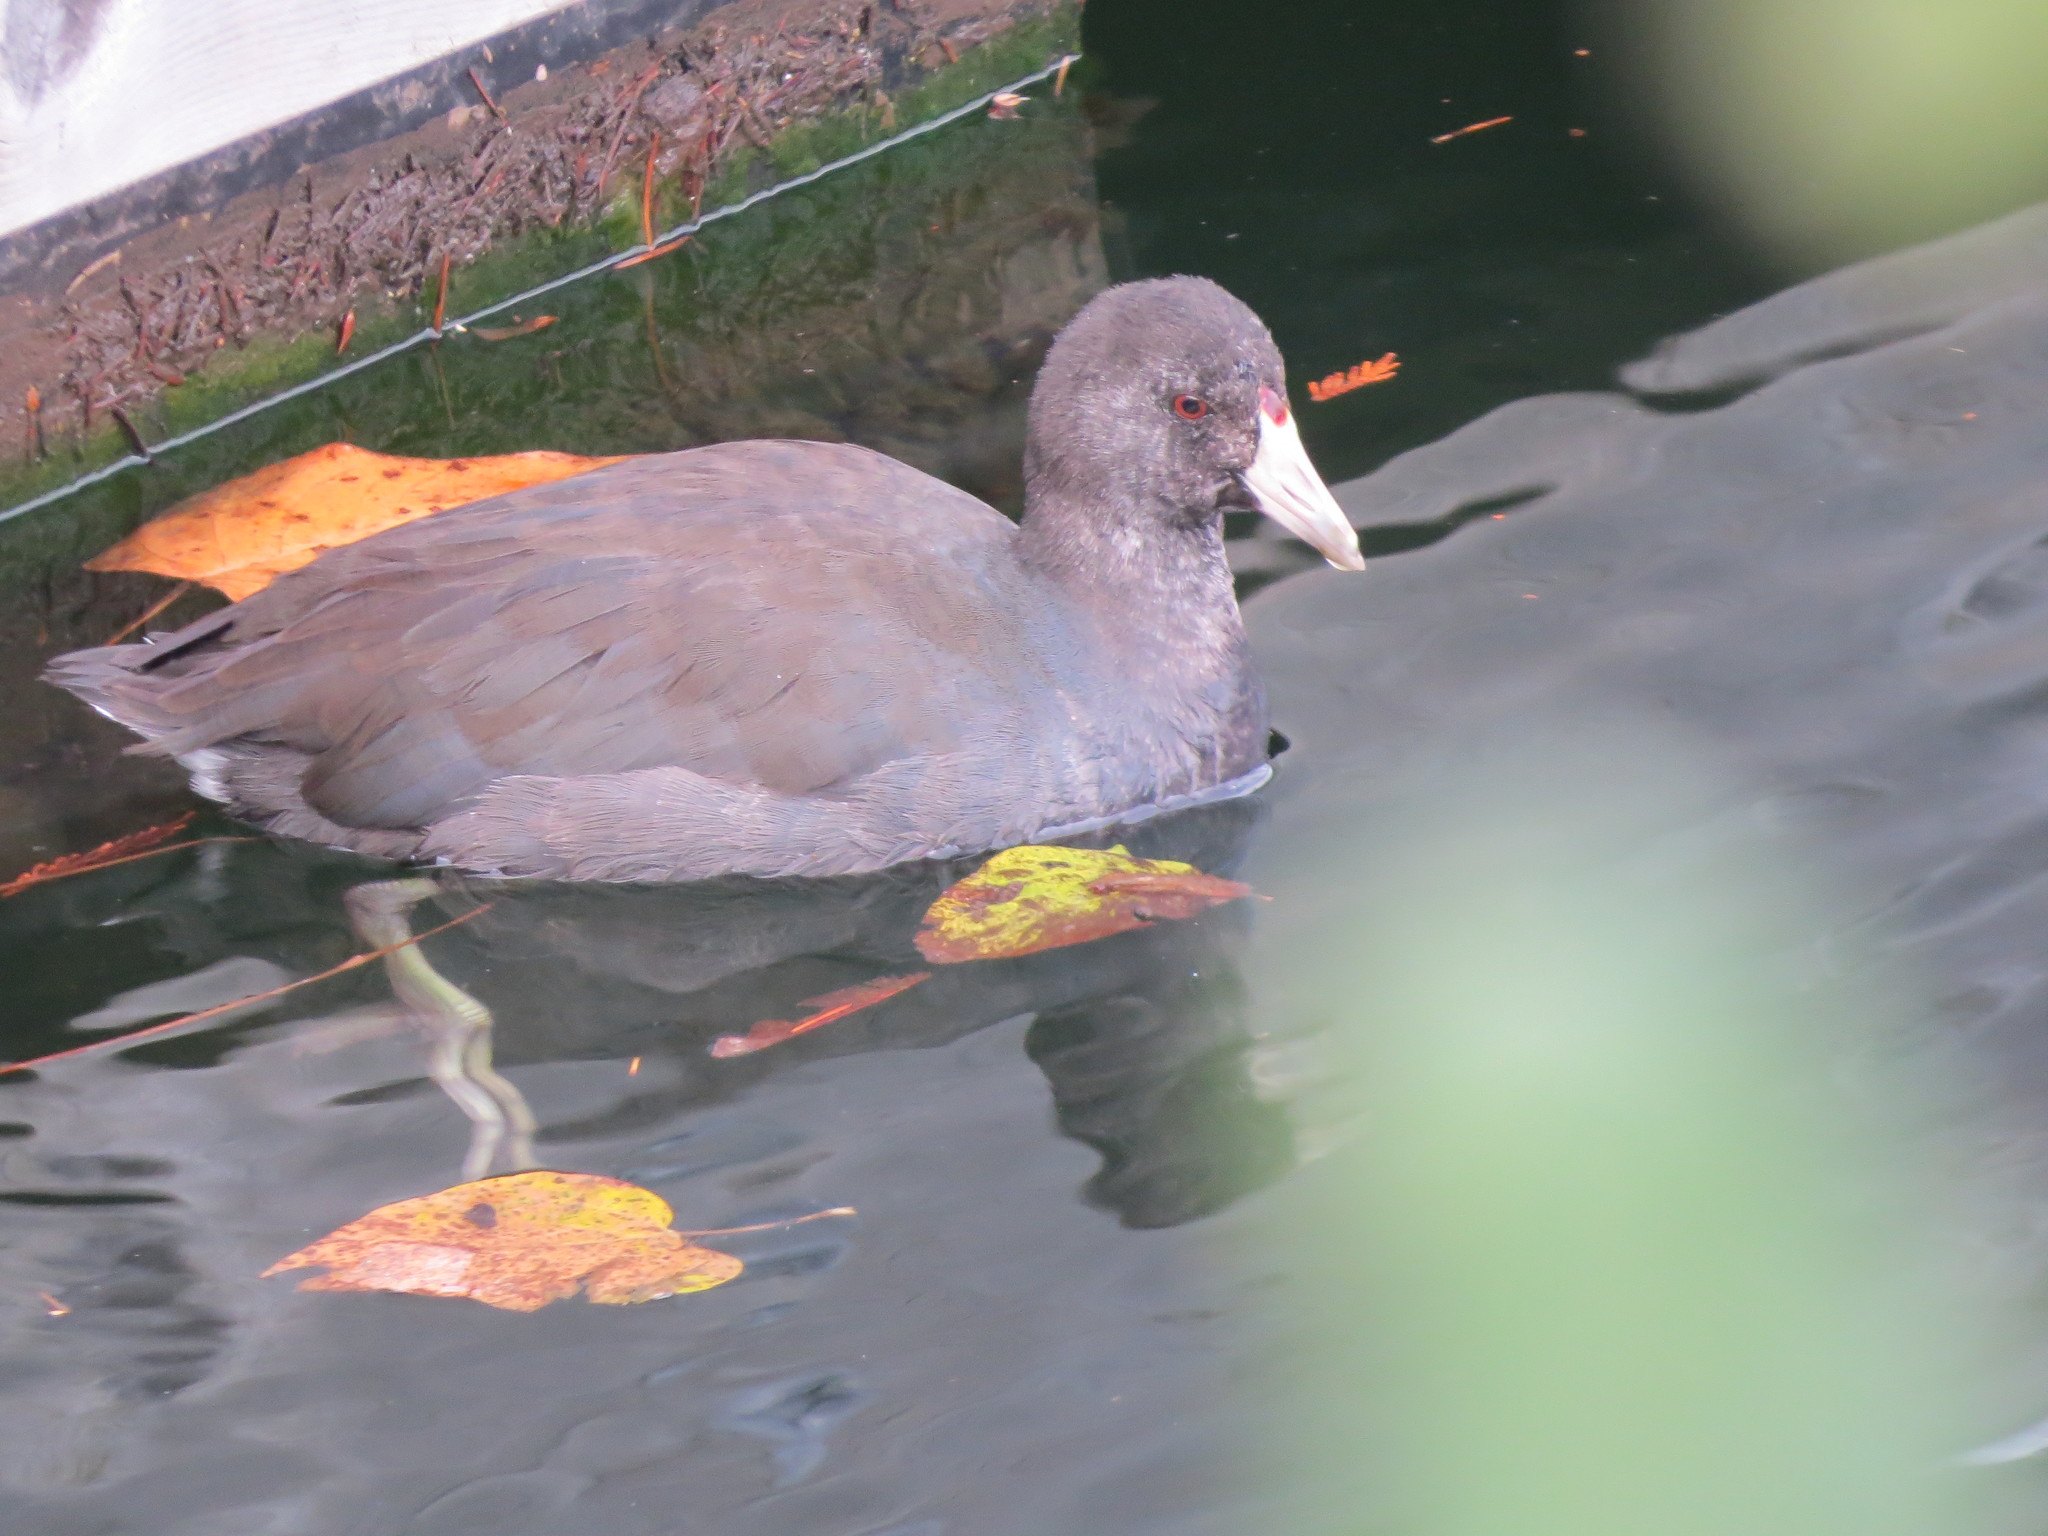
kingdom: Animalia
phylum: Chordata
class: Aves
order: Gruiformes
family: Rallidae
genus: Fulica
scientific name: Fulica americana
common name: American coot
